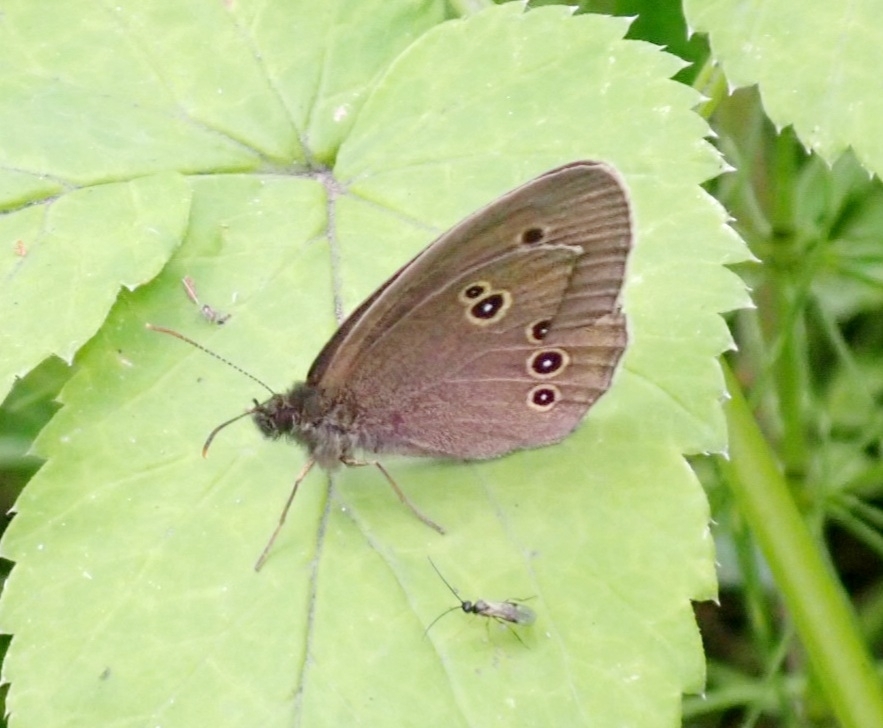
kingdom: Animalia
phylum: Arthropoda
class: Insecta
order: Lepidoptera
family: Nymphalidae
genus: Aphantopus
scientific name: Aphantopus hyperantus
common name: Ringlet
